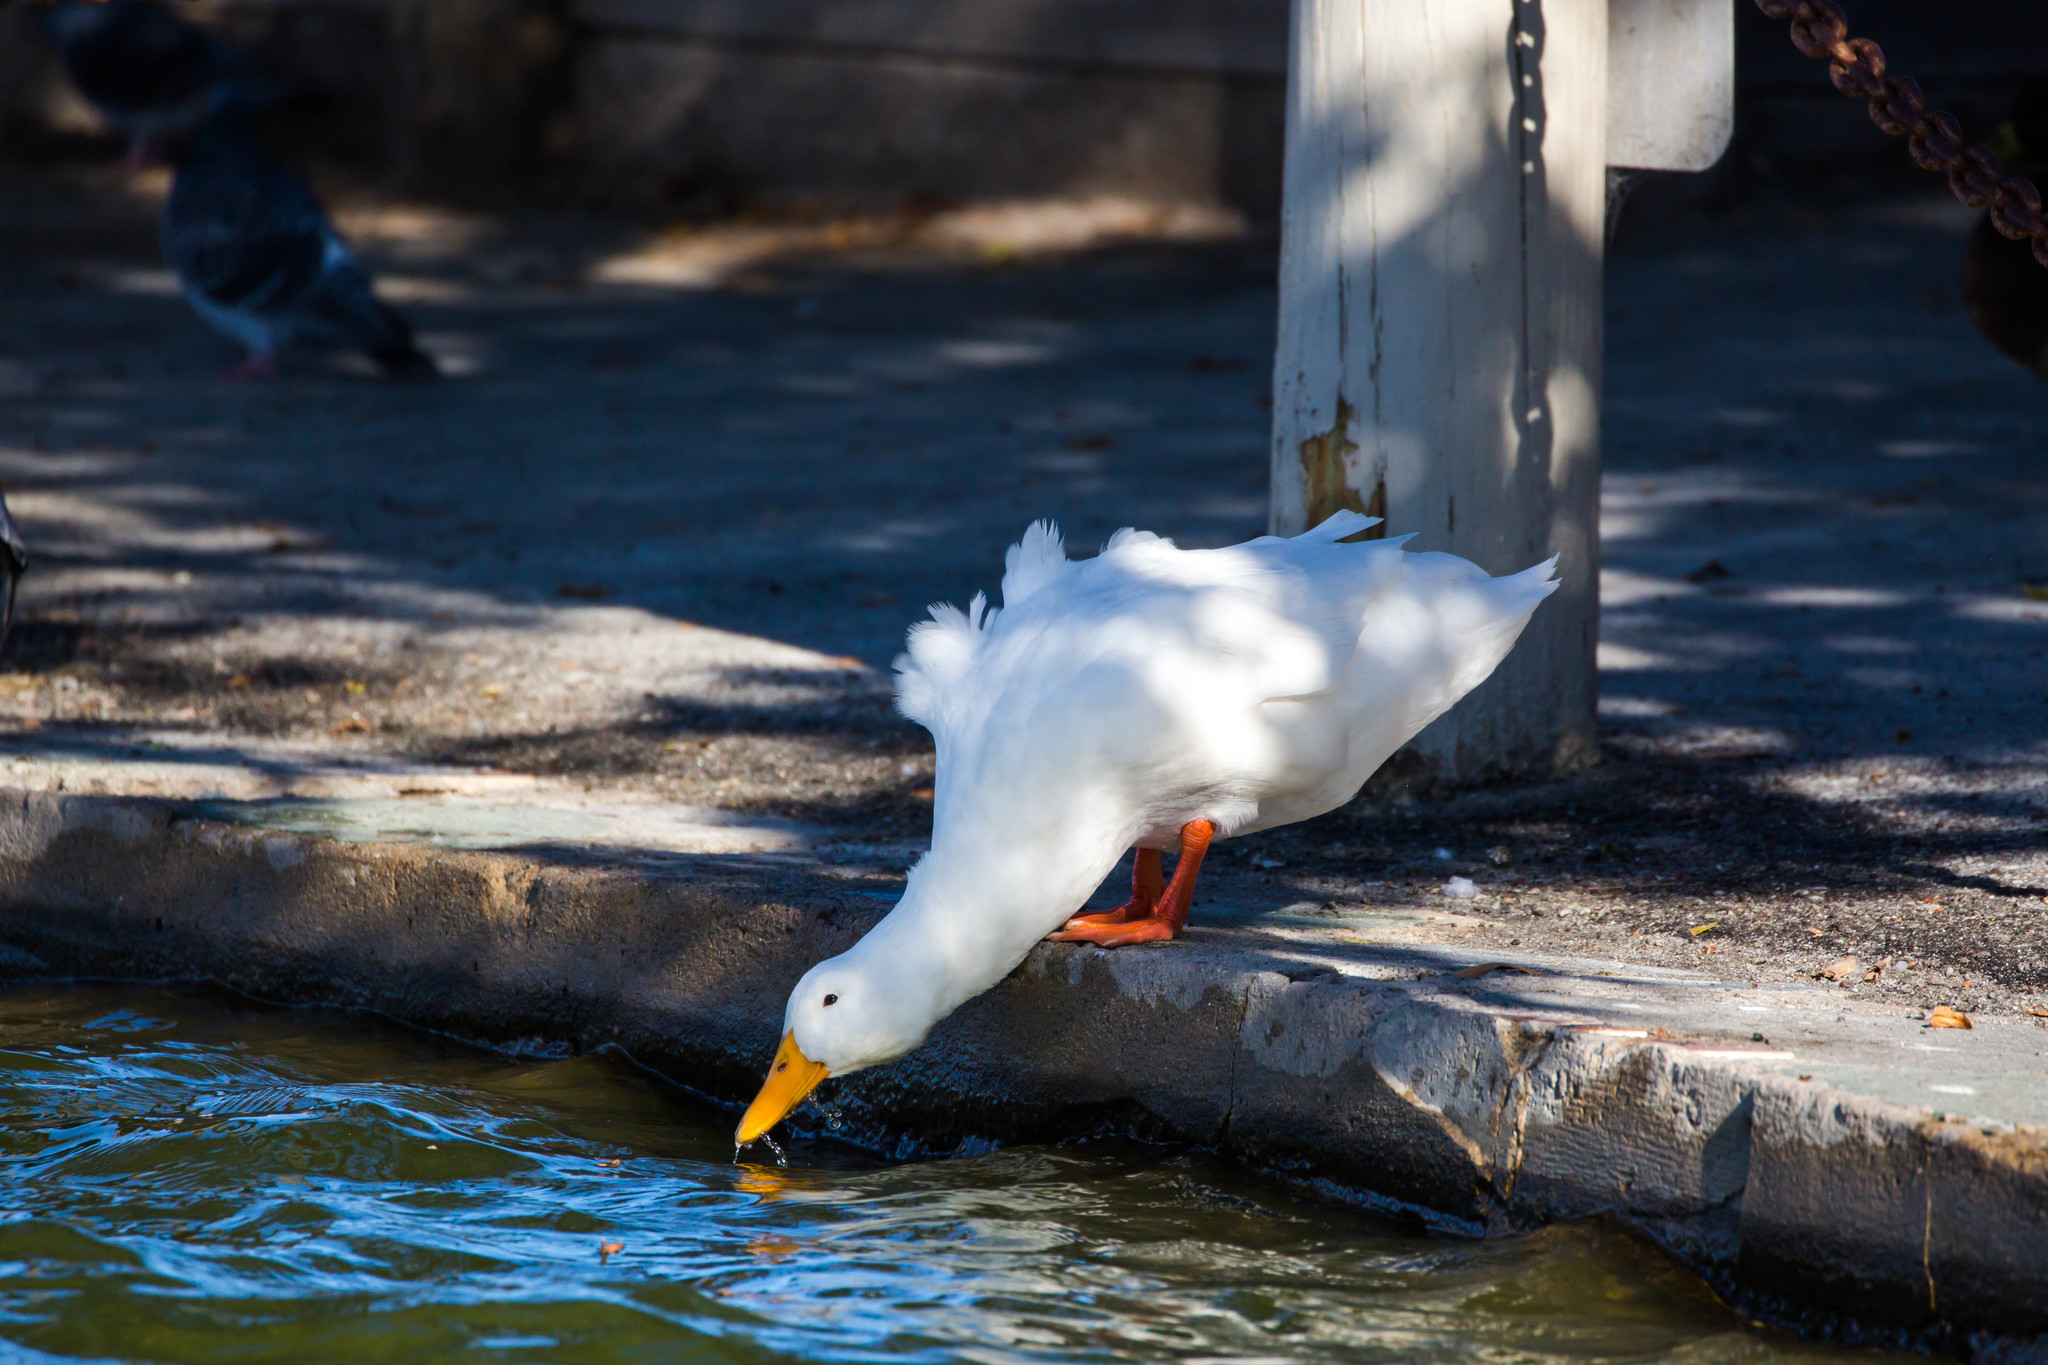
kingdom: Animalia
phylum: Chordata
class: Aves
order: Anseriformes
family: Anatidae
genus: Anas
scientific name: Anas platyrhynchos
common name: Mallard
